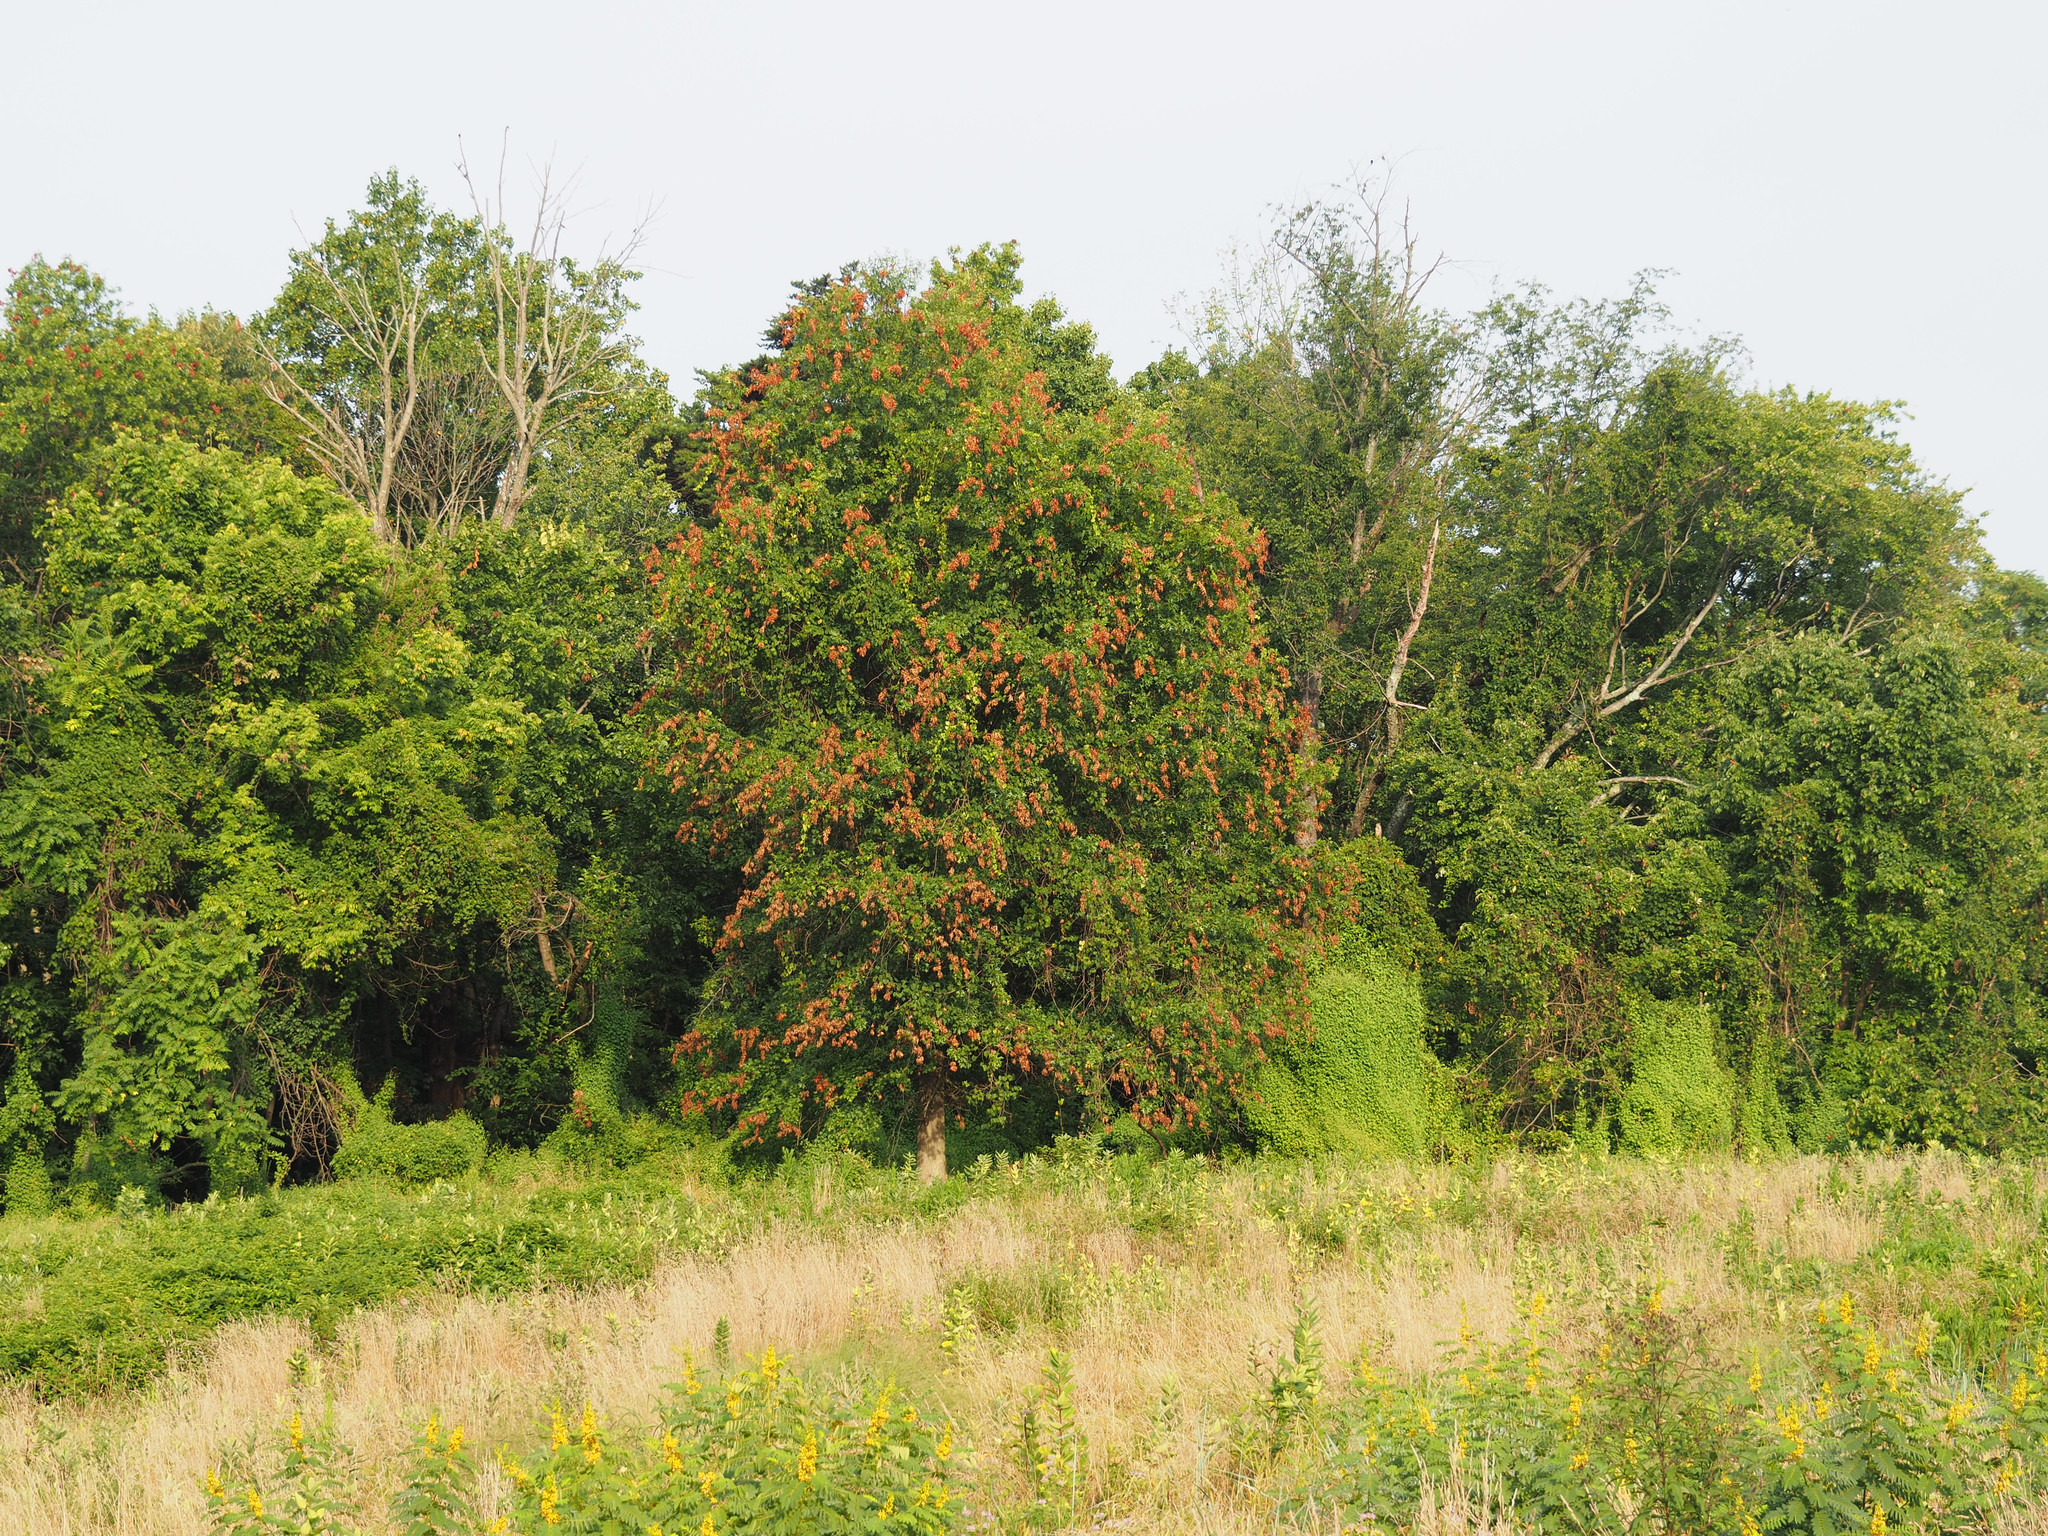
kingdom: Animalia
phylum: Arthropoda
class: Insecta
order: Hemiptera
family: Cicadidae
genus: Magicicada
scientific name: Magicicada
